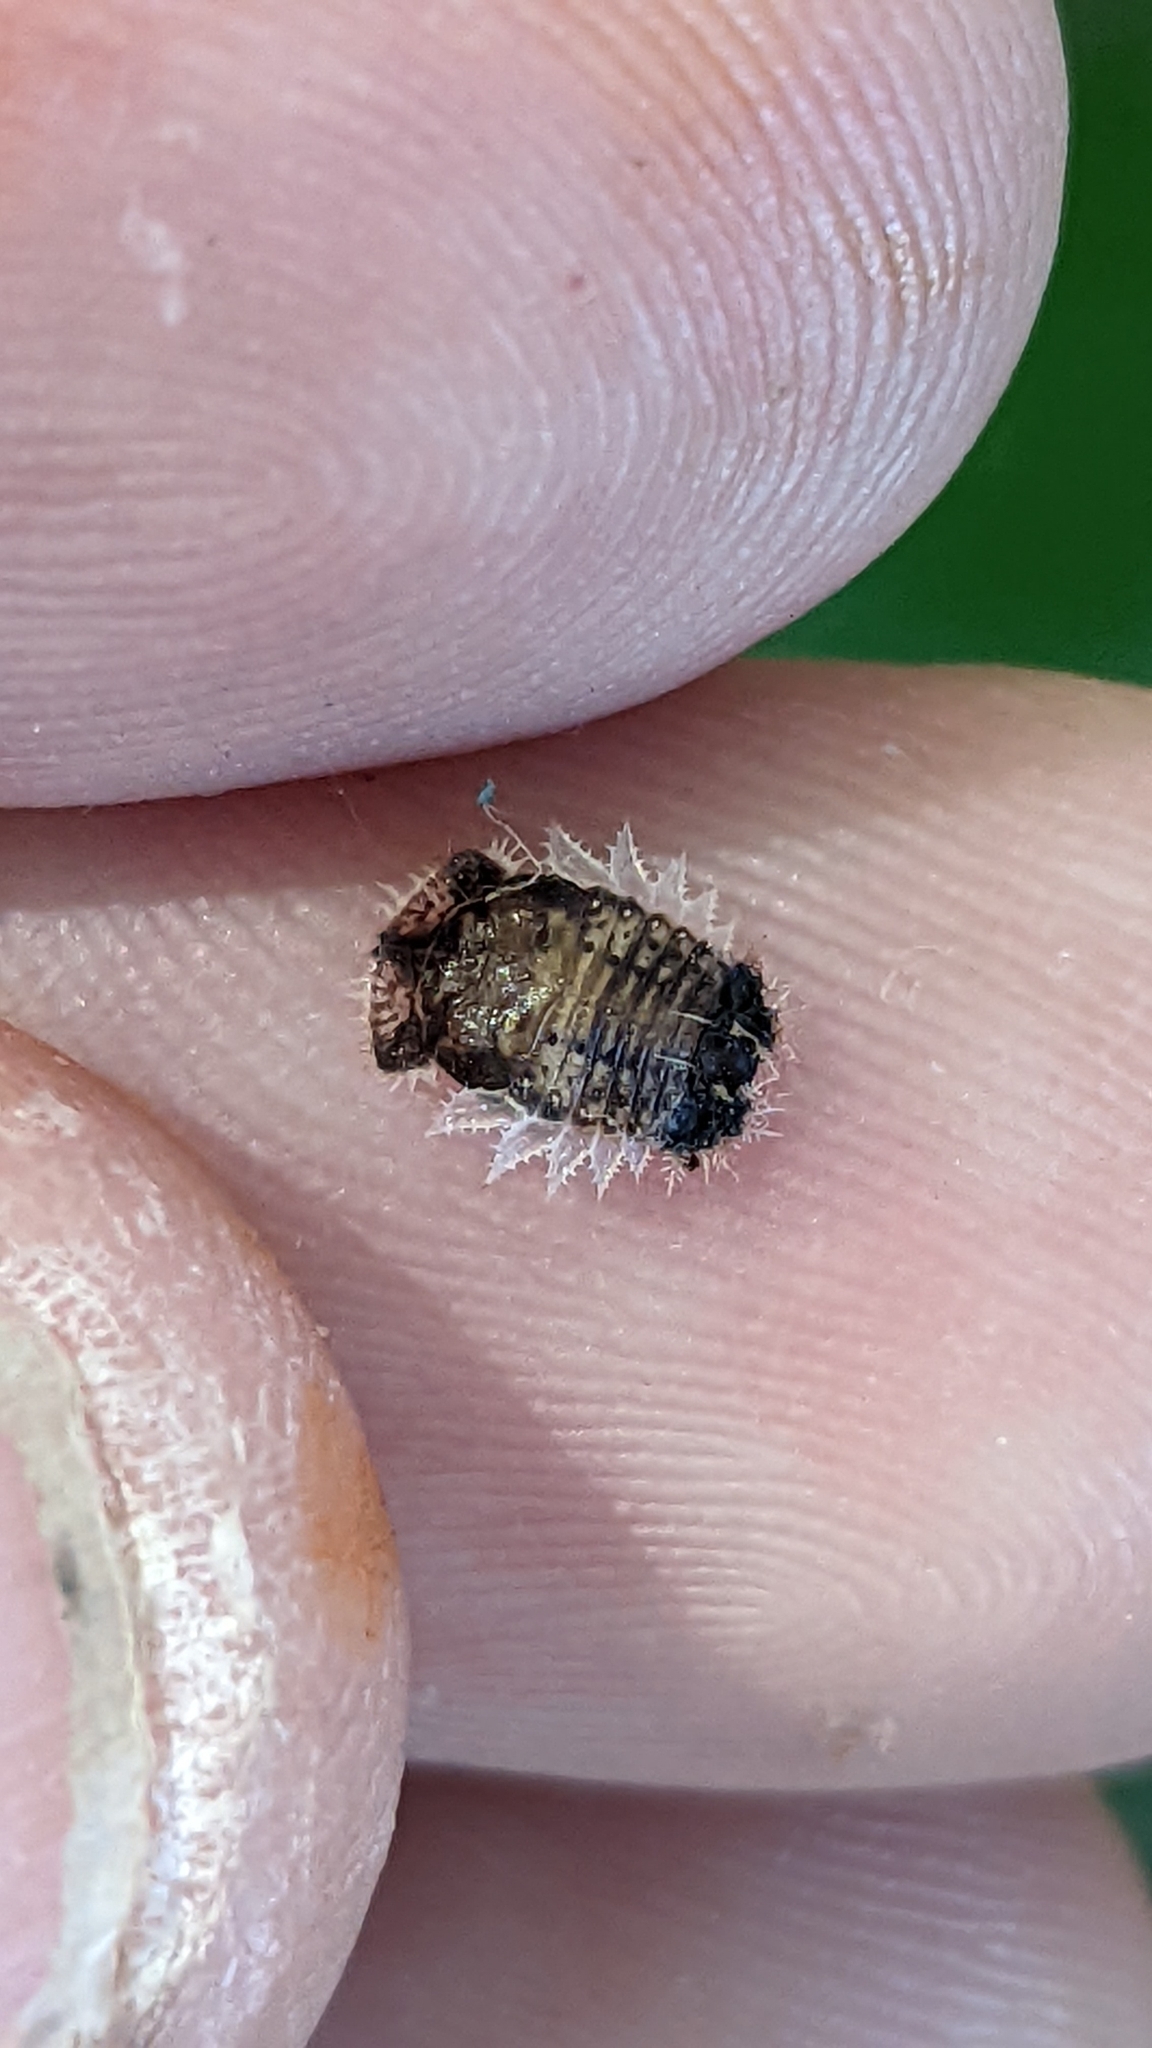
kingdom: Animalia
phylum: Arthropoda
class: Insecta
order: Coleoptera
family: Chrysomelidae
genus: Cassida
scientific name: Cassida rubiginosa
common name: Thistle tortoise beetle
